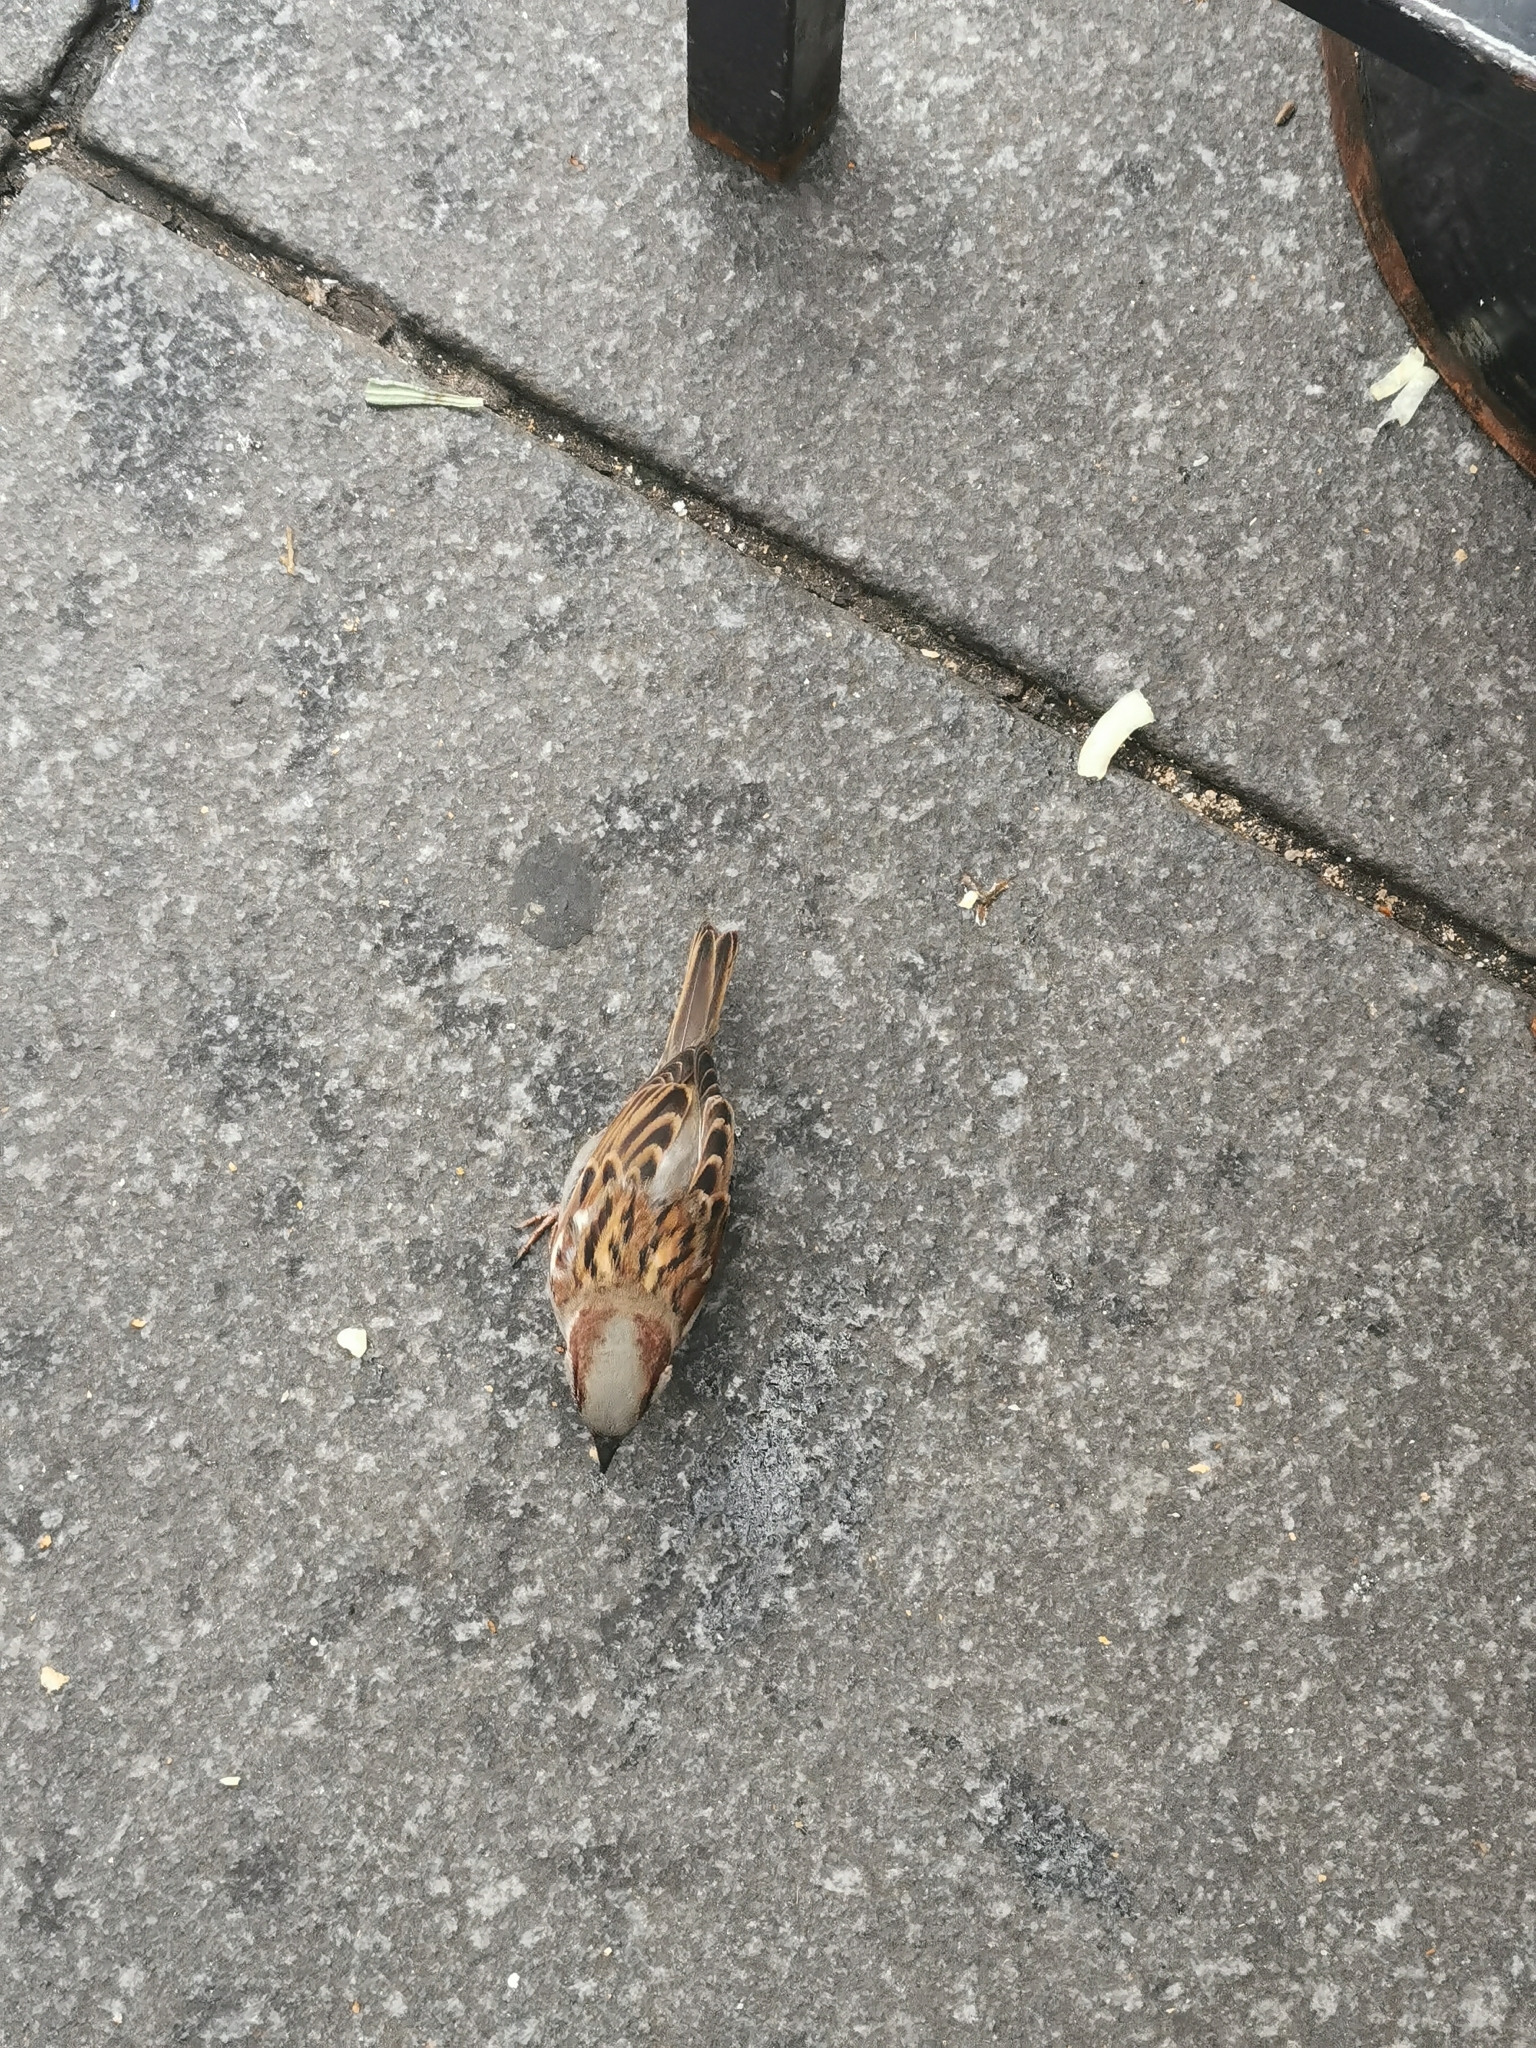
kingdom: Animalia
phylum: Chordata
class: Aves
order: Passeriformes
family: Passeridae
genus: Passer
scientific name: Passer domesticus
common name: House sparrow
